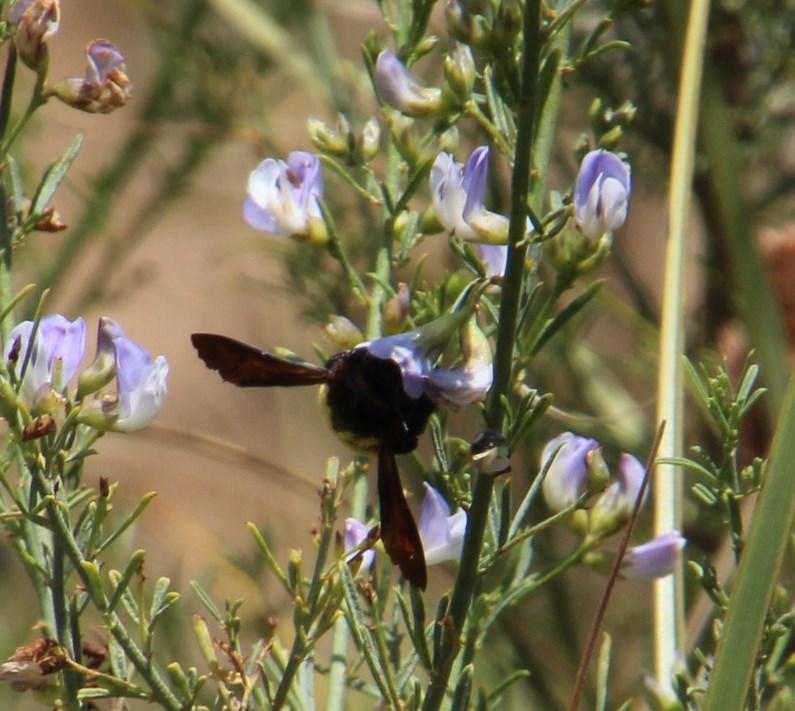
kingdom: Animalia
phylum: Arthropoda
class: Insecta
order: Hymenoptera
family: Apidae
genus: Xylocopa
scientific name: Xylocopa caffra
